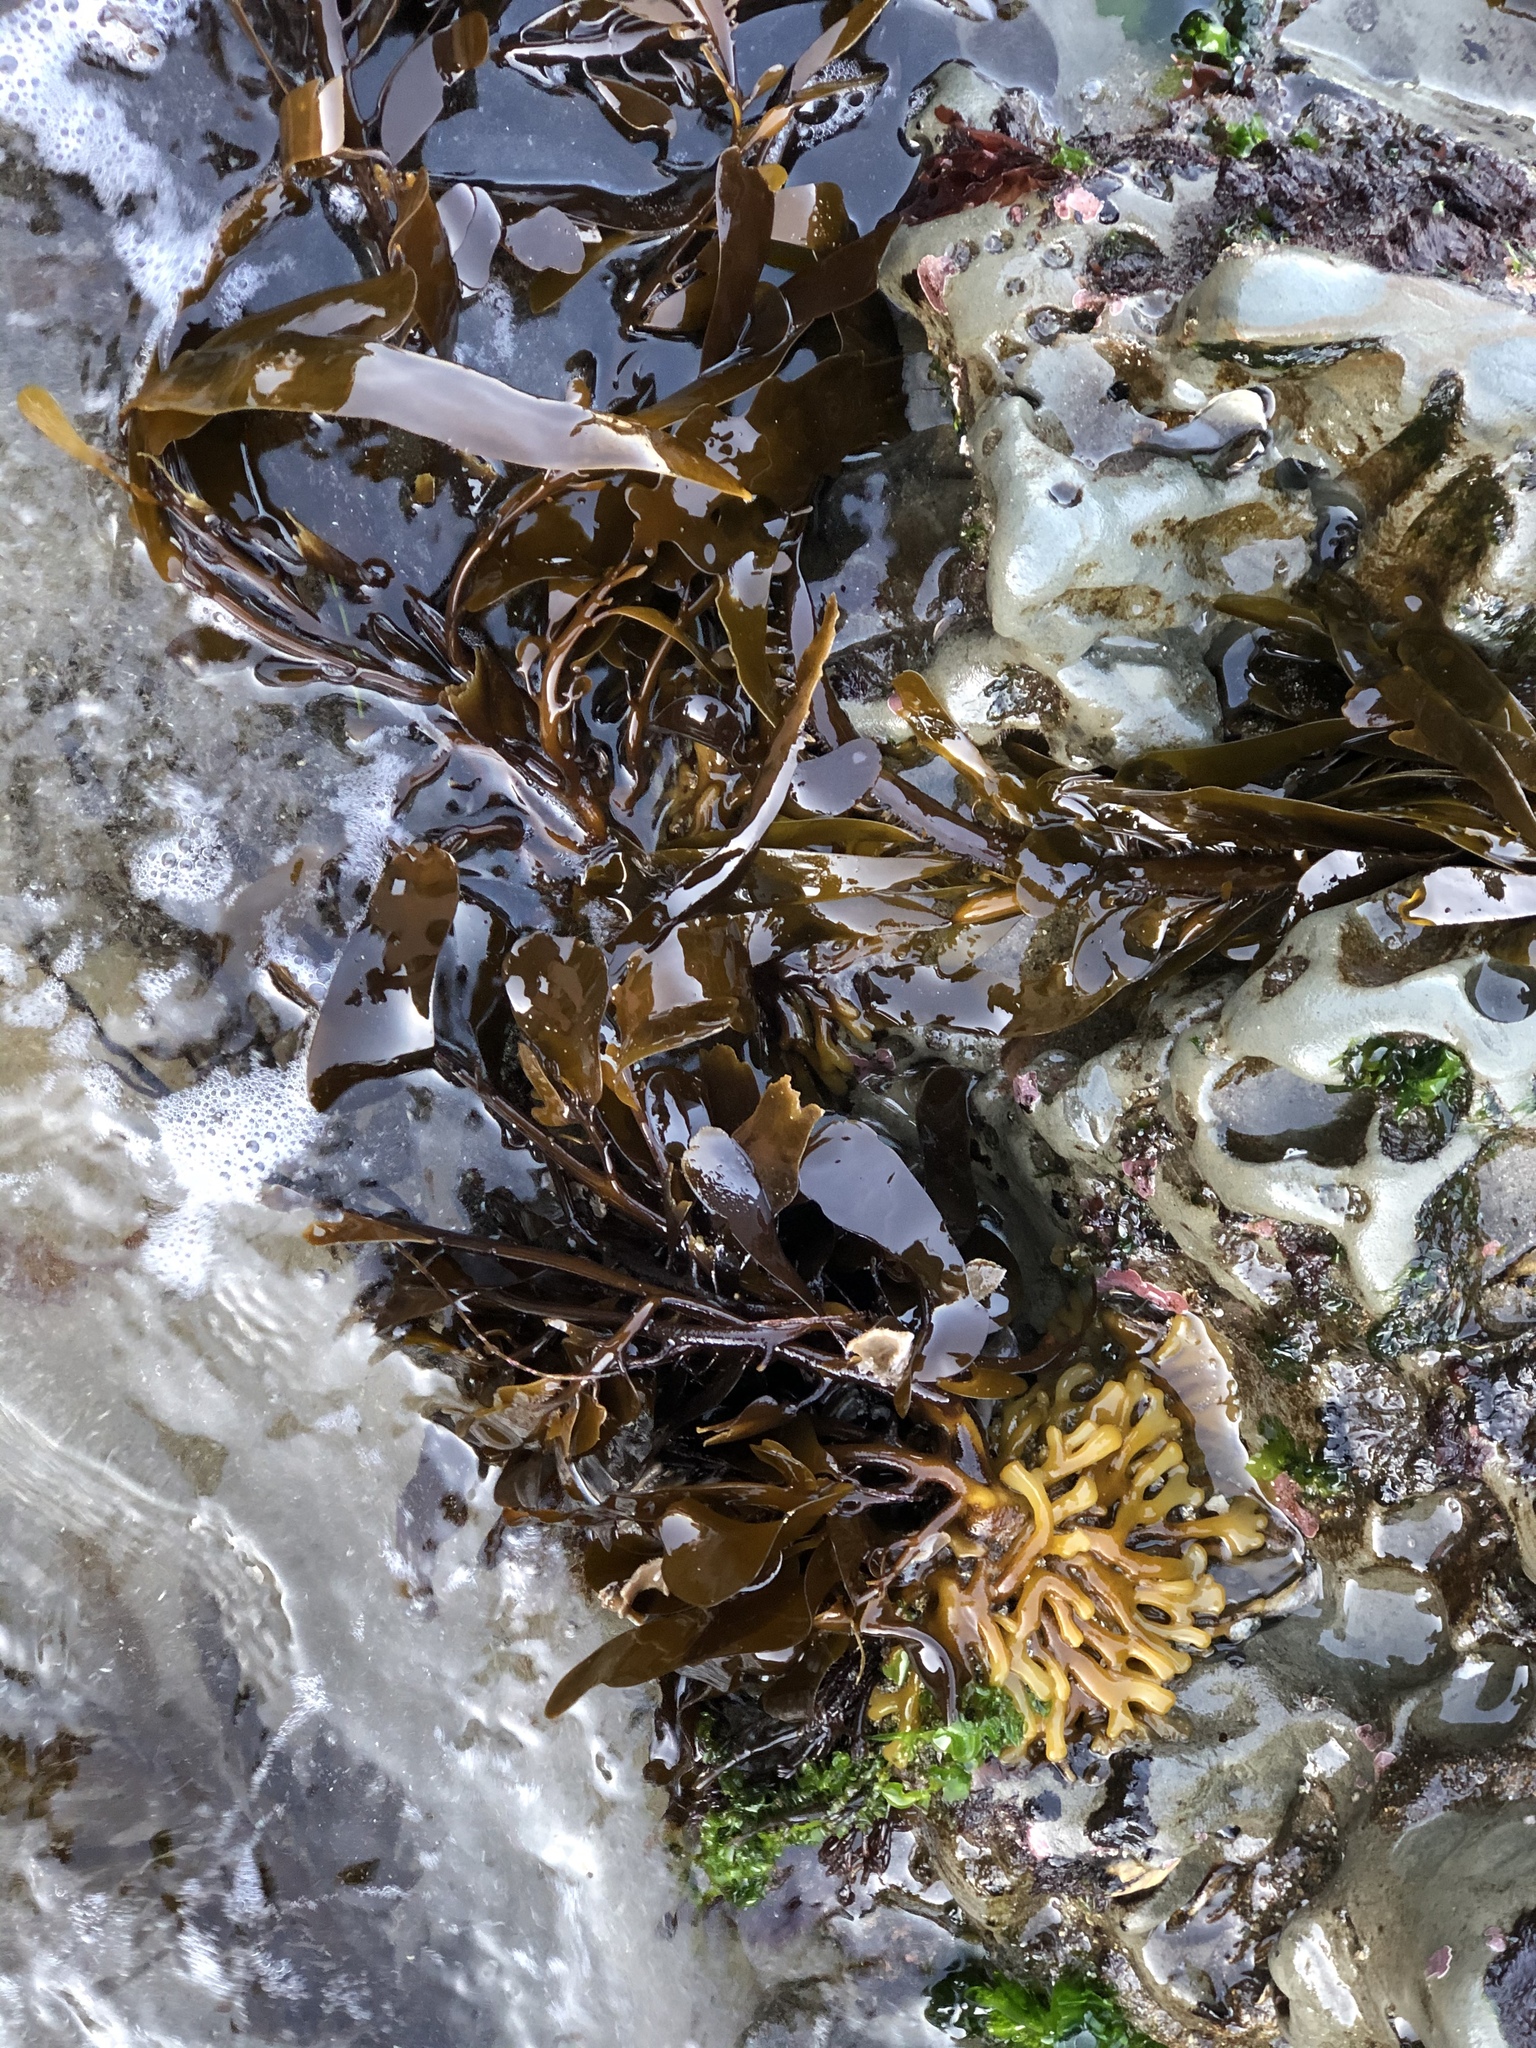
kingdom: Chromista
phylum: Ochrophyta
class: Phaeophyceae
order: Laminariales
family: Lessoniaceae
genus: Egregia
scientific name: Egregia menziesii
